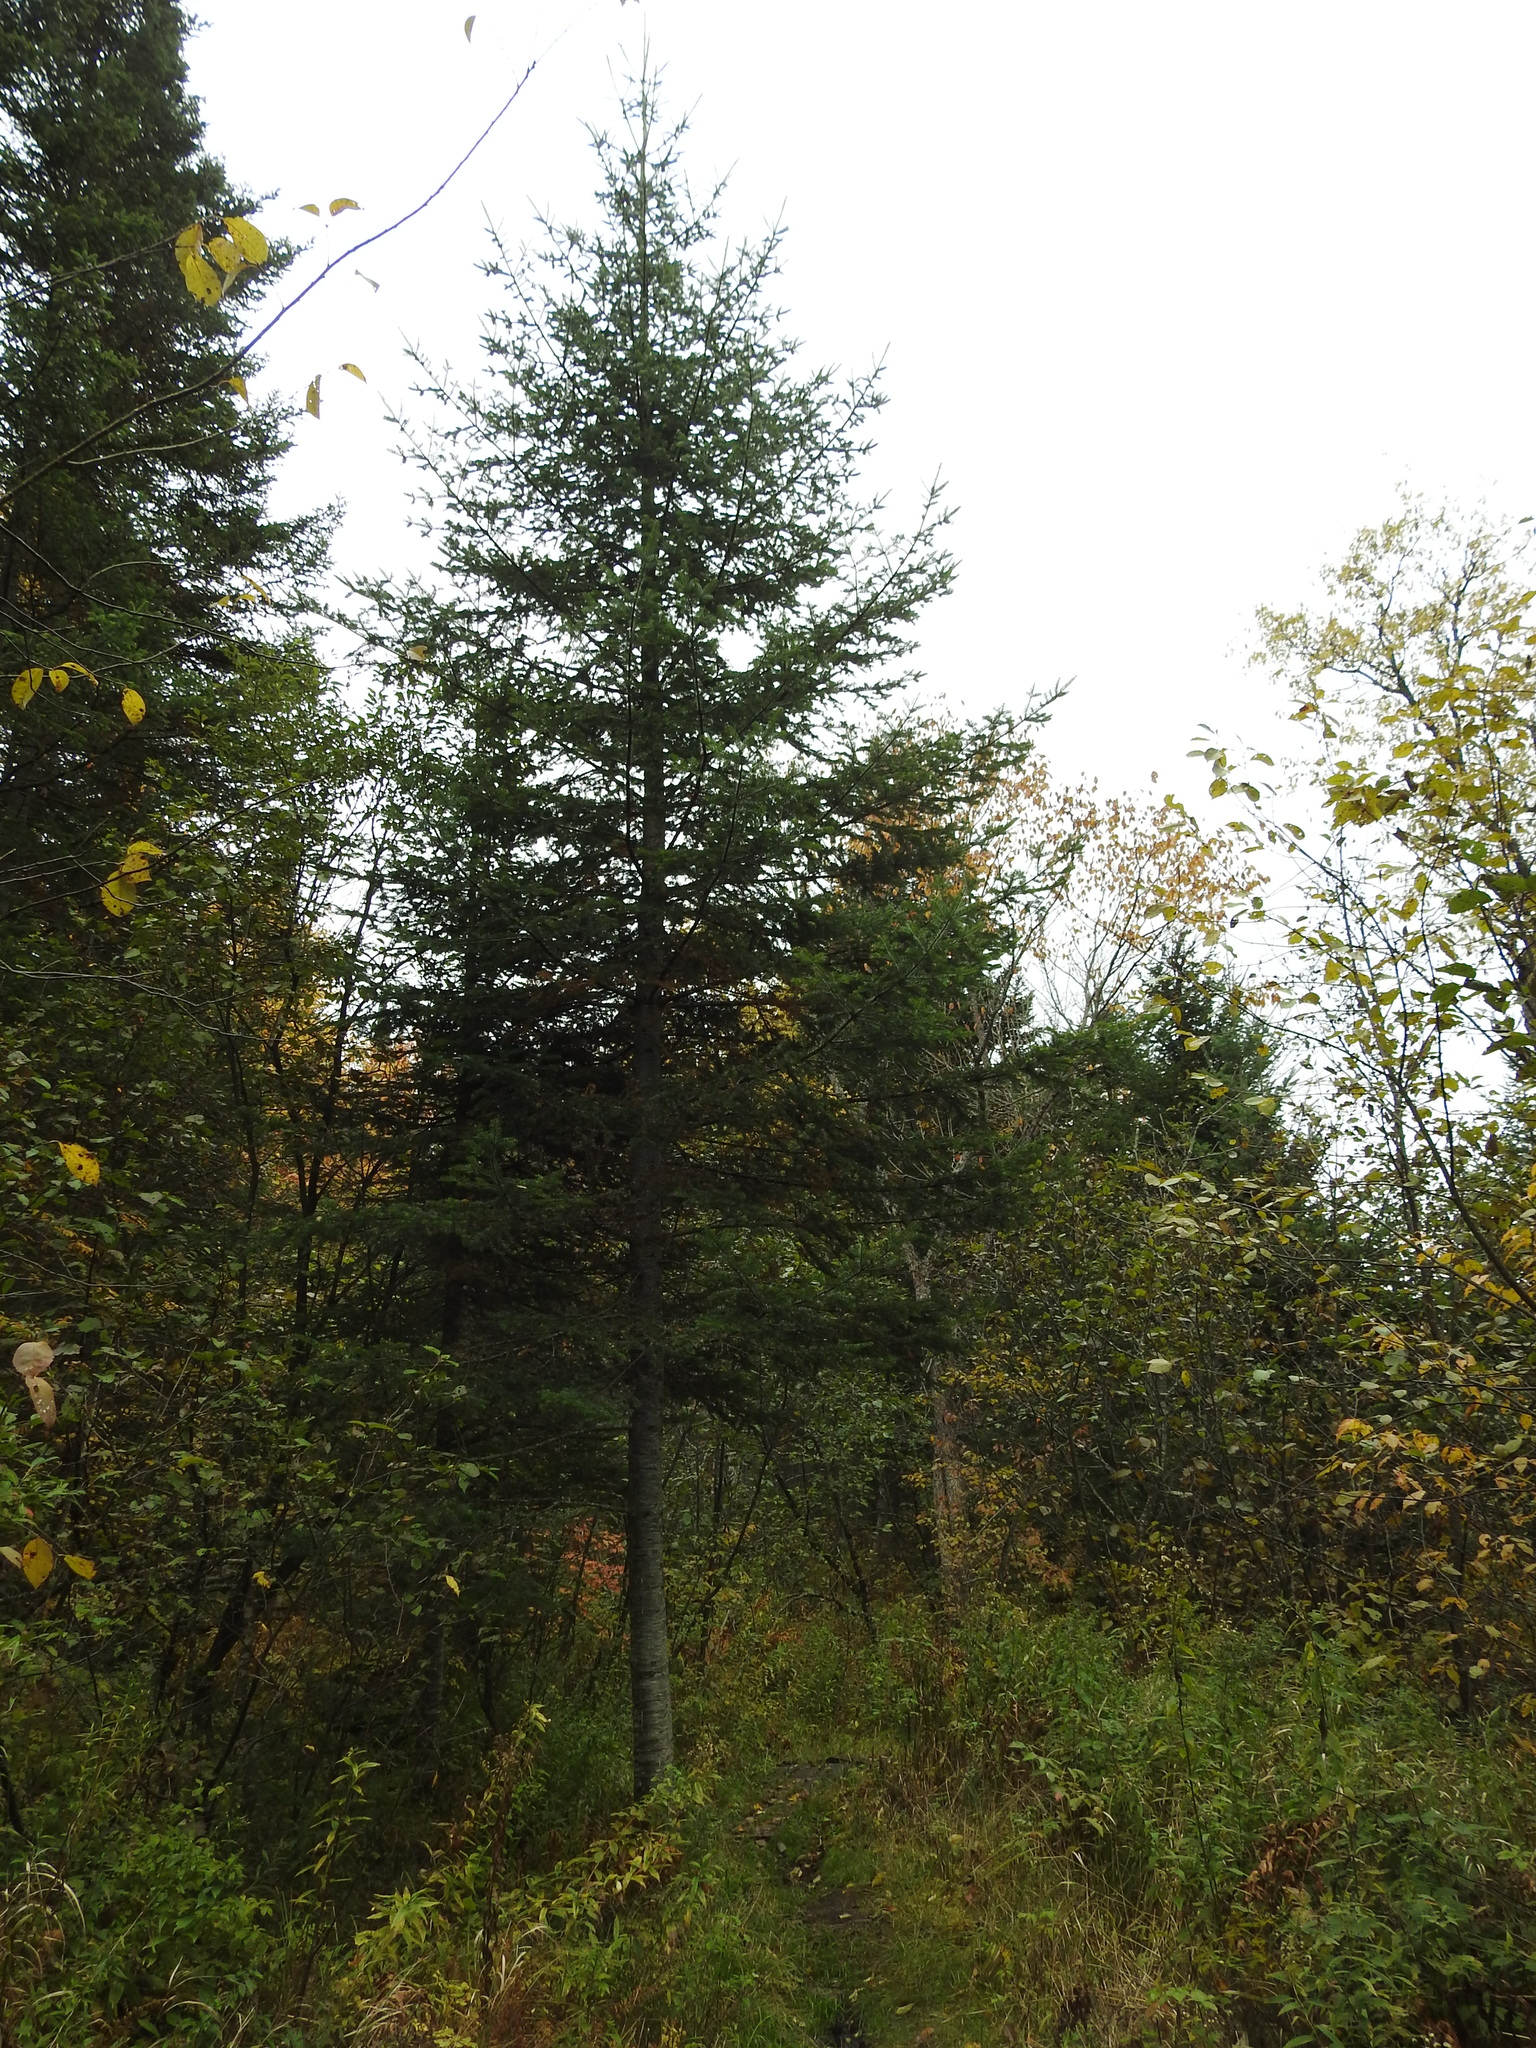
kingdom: Plantae
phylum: Tracheophyta
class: Pinopsida
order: Pinales
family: Pinaceae
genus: Abies
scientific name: Abies balsamea
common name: Balsam fir
